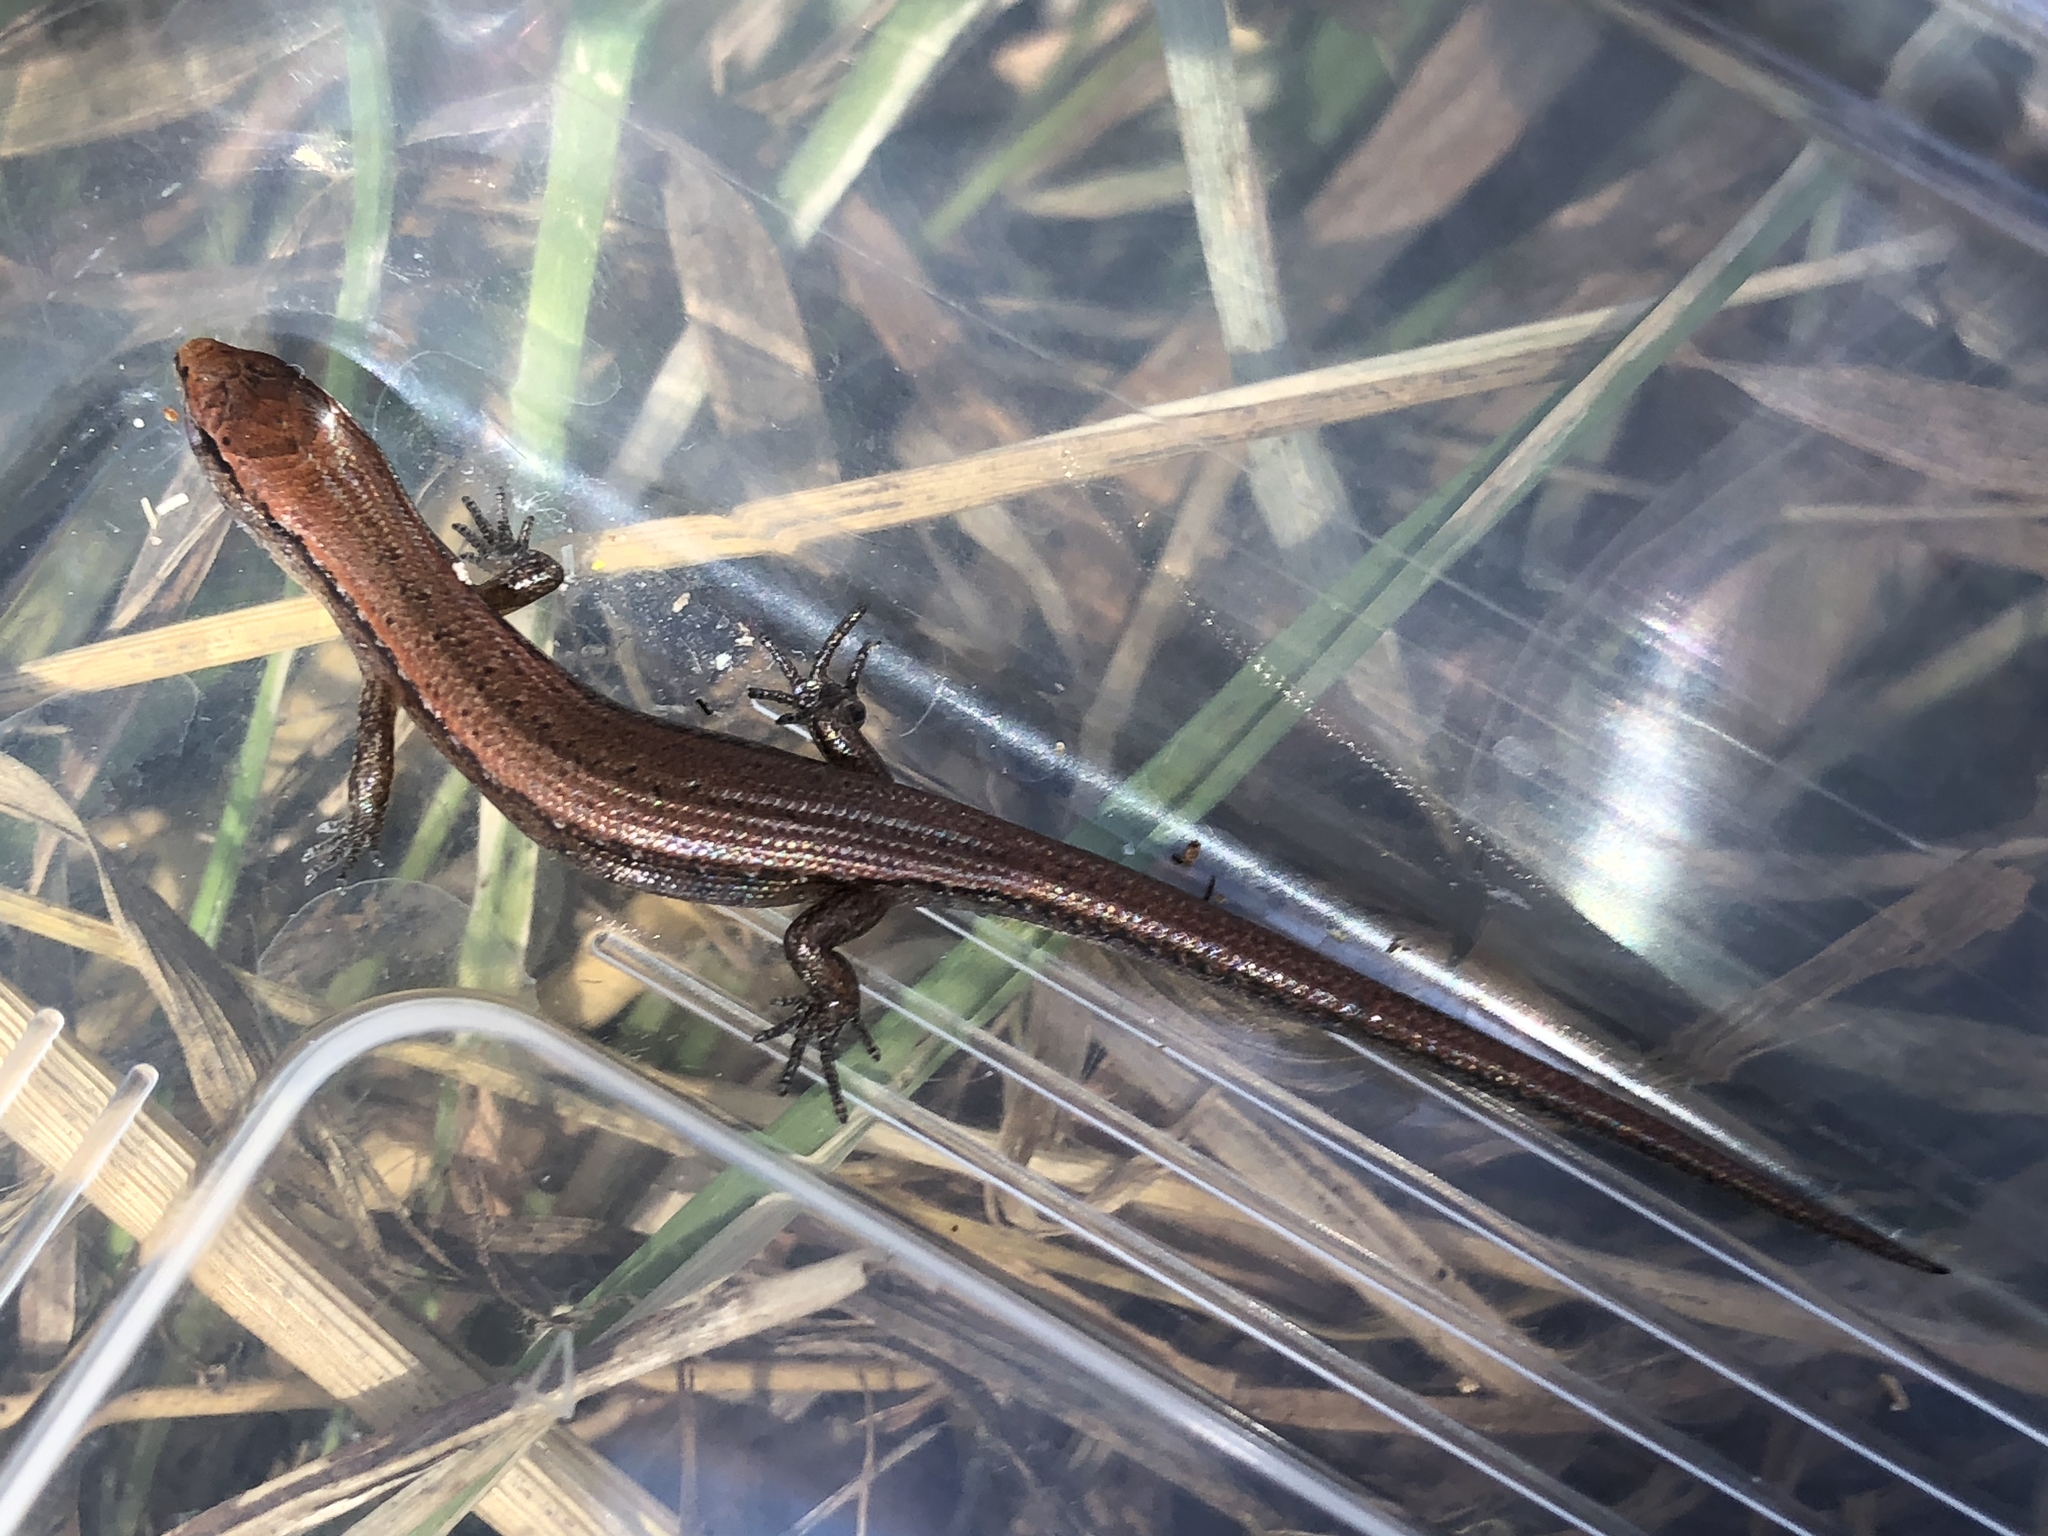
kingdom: Animalia
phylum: Chordata
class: Squamata
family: Scincidae
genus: Oligosoma
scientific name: Oligosoma aeneum
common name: Copper skink
